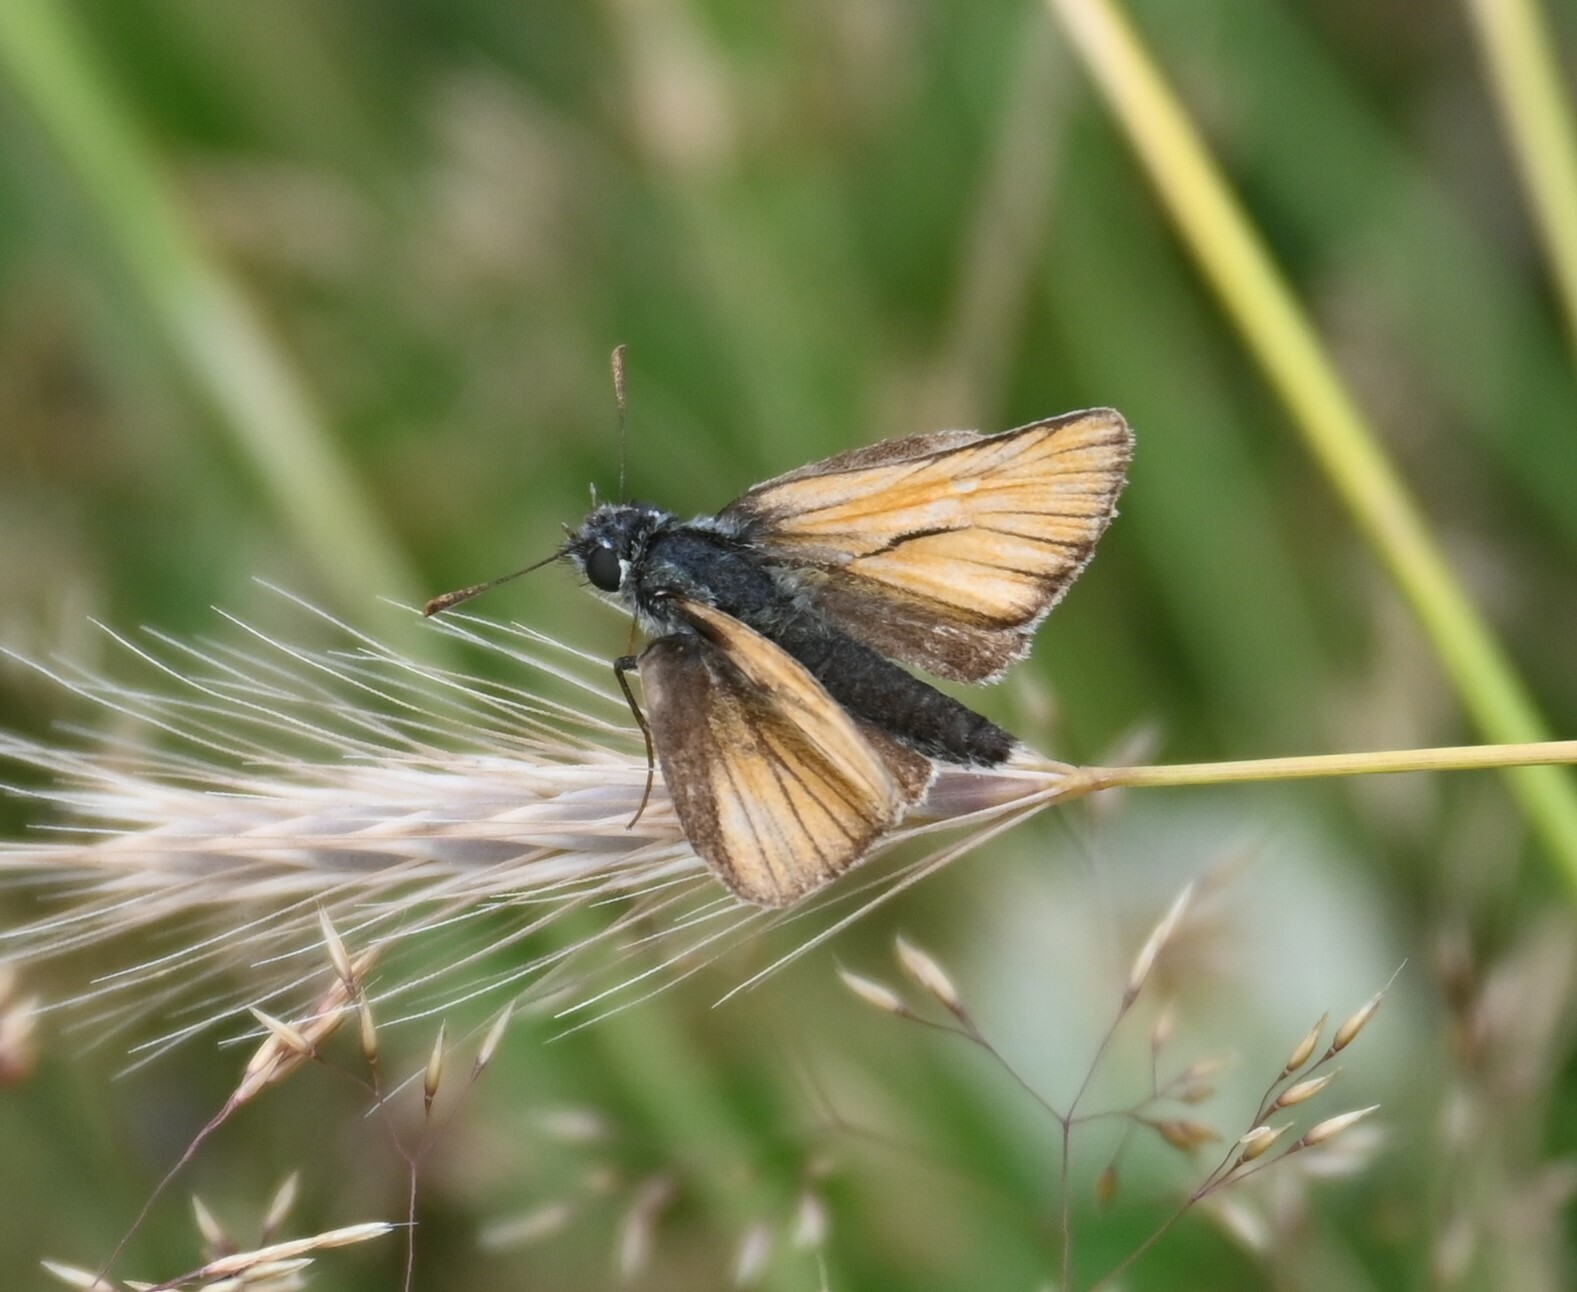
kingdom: Animalia
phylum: Arthropoda
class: Insecta
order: Lepidoptera
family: Hesperiidae
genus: Thymelicus
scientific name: Thymelicus sylvestris
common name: Small skipper
